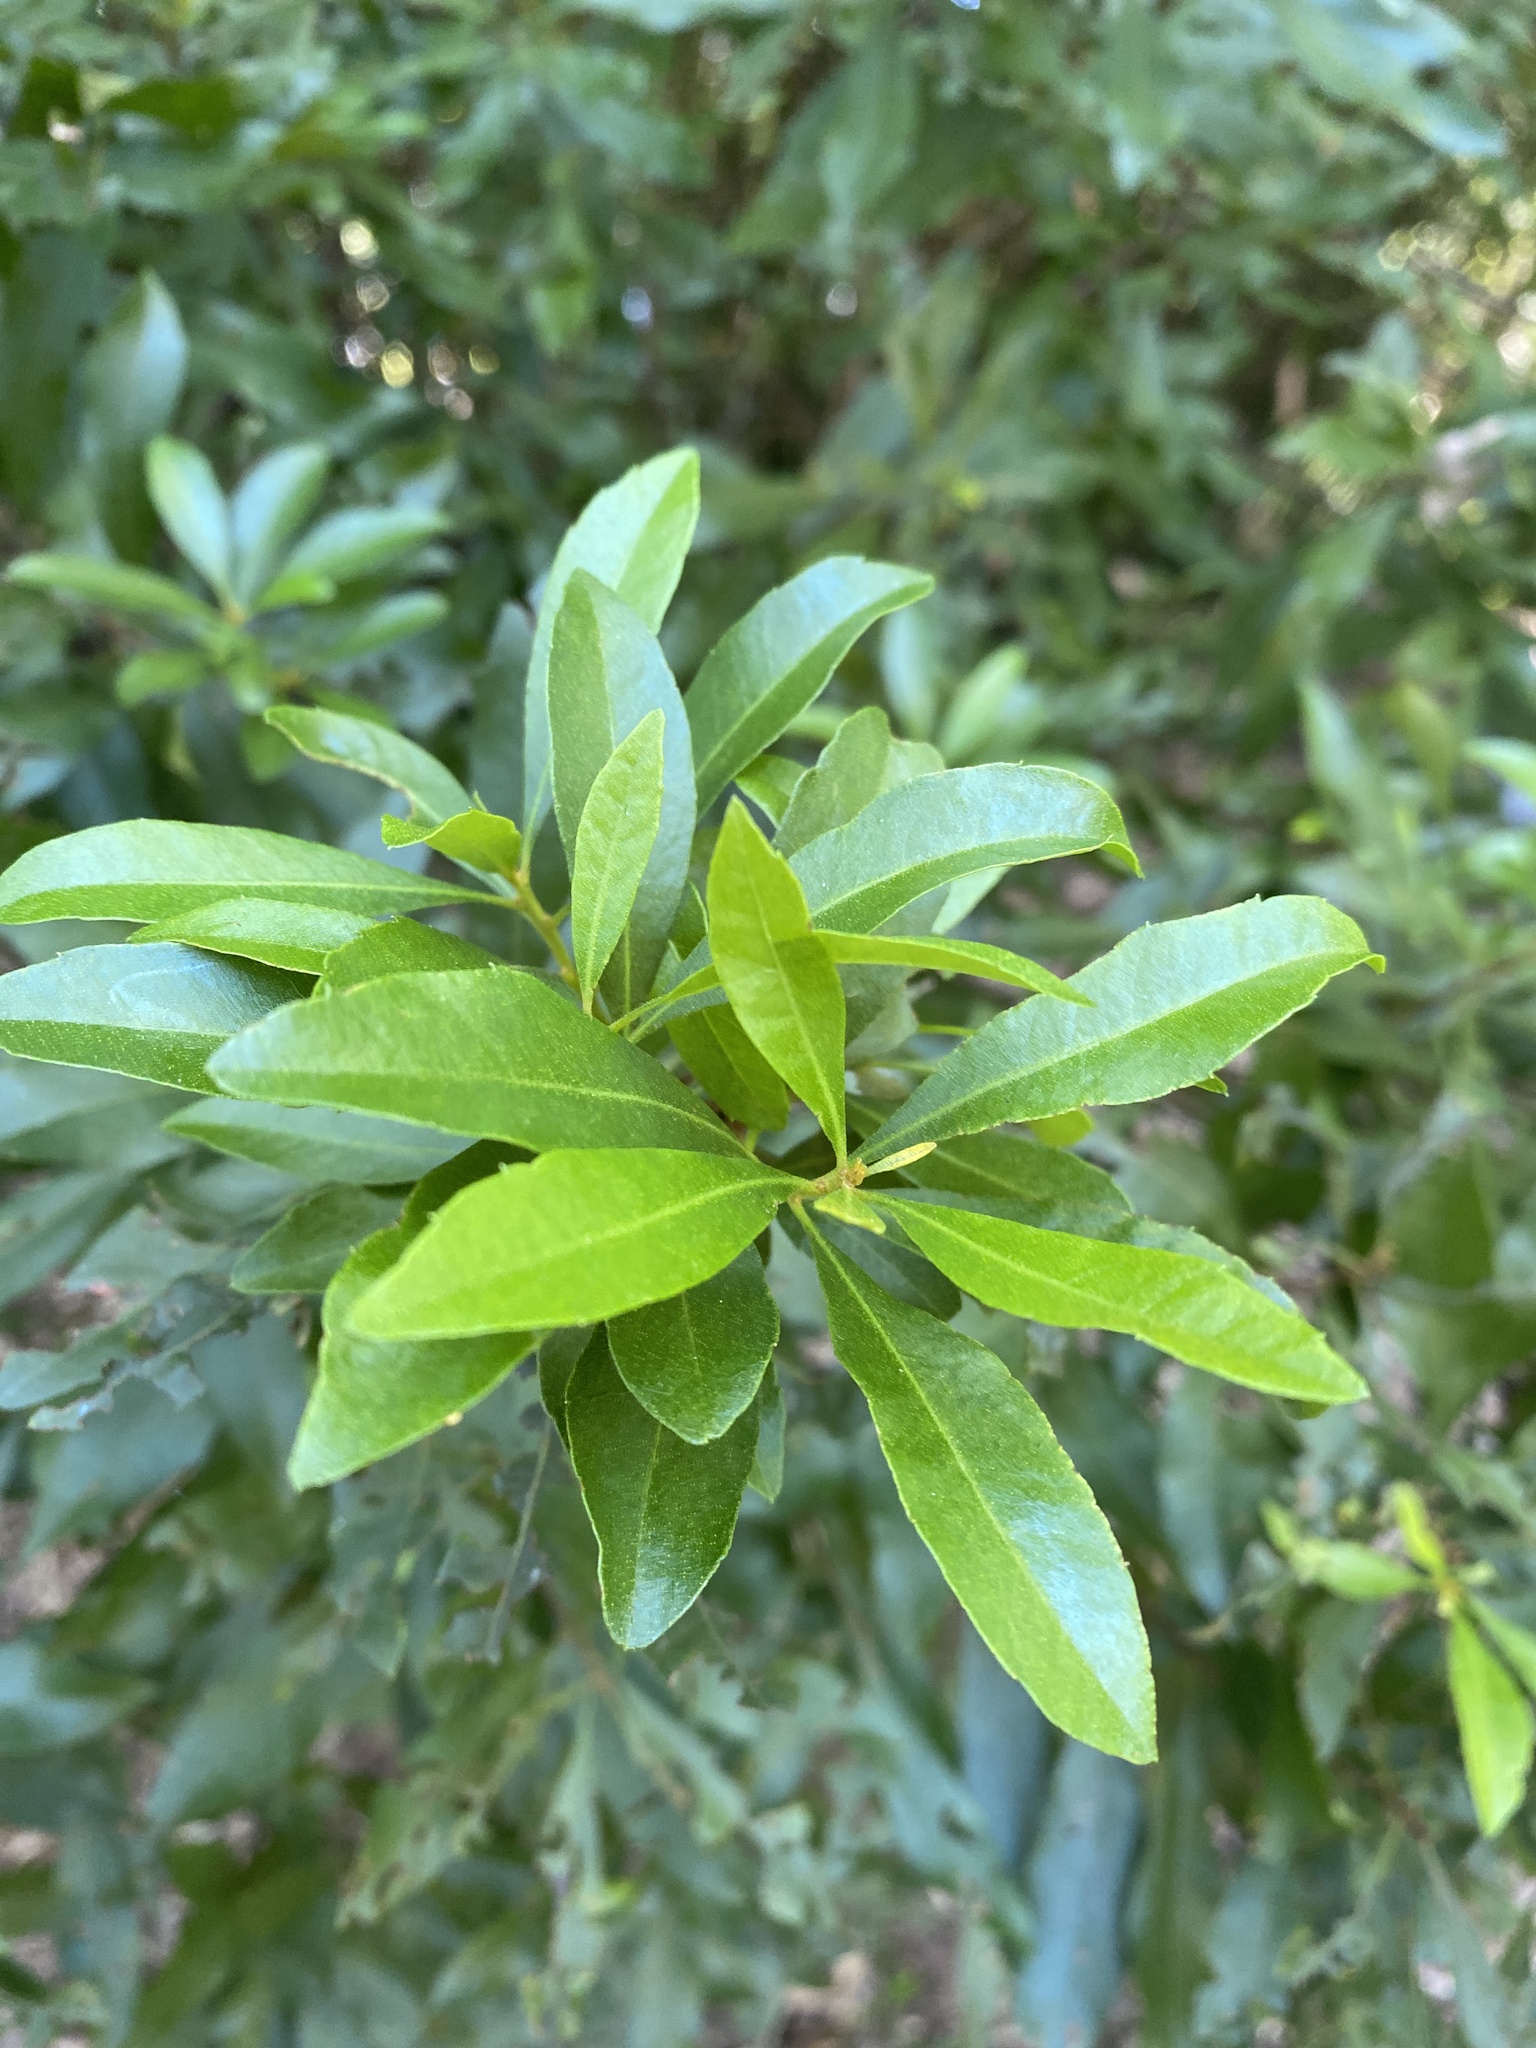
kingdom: Plantae
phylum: Tracheophyta
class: Magnoliopsida
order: Fagales
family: Myricaceae
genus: Morella
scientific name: Morella cerifera
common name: Wax myrtle
